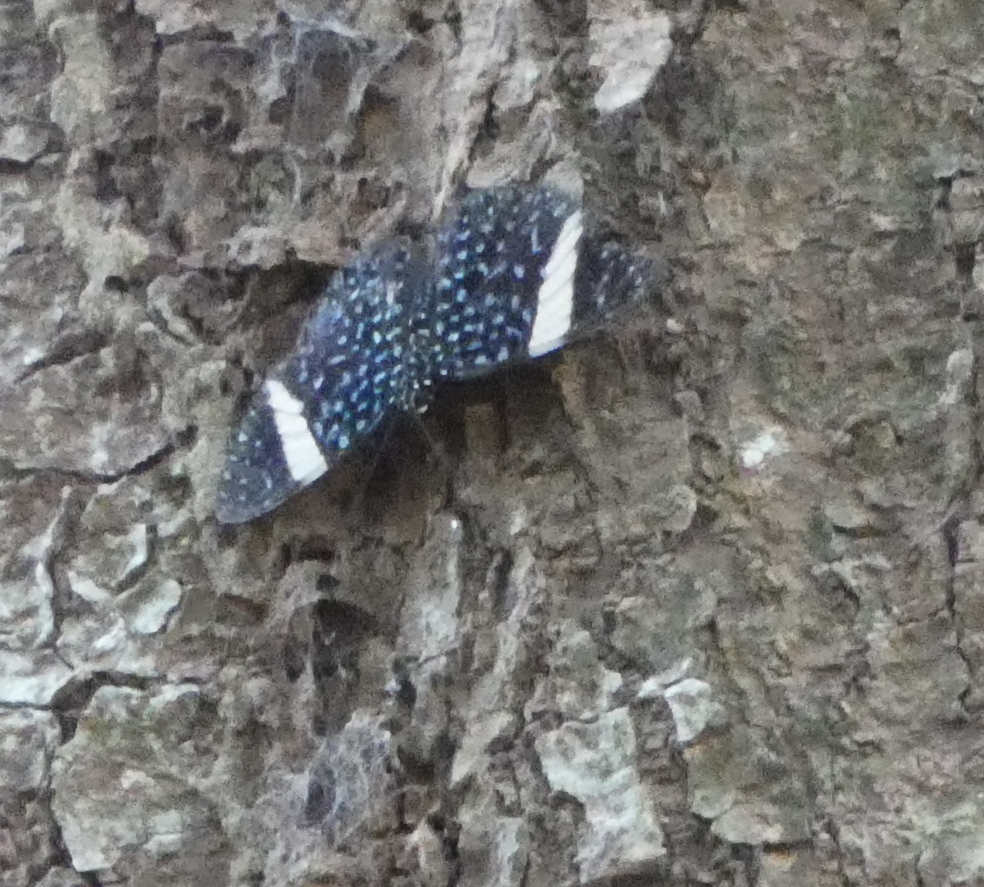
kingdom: Animalia
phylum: Arthropoda
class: Insecta
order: Lepidoptera
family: Nymphalidae
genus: Hamadryas
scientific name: Hamadryas laodamia
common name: Starry night cracker
